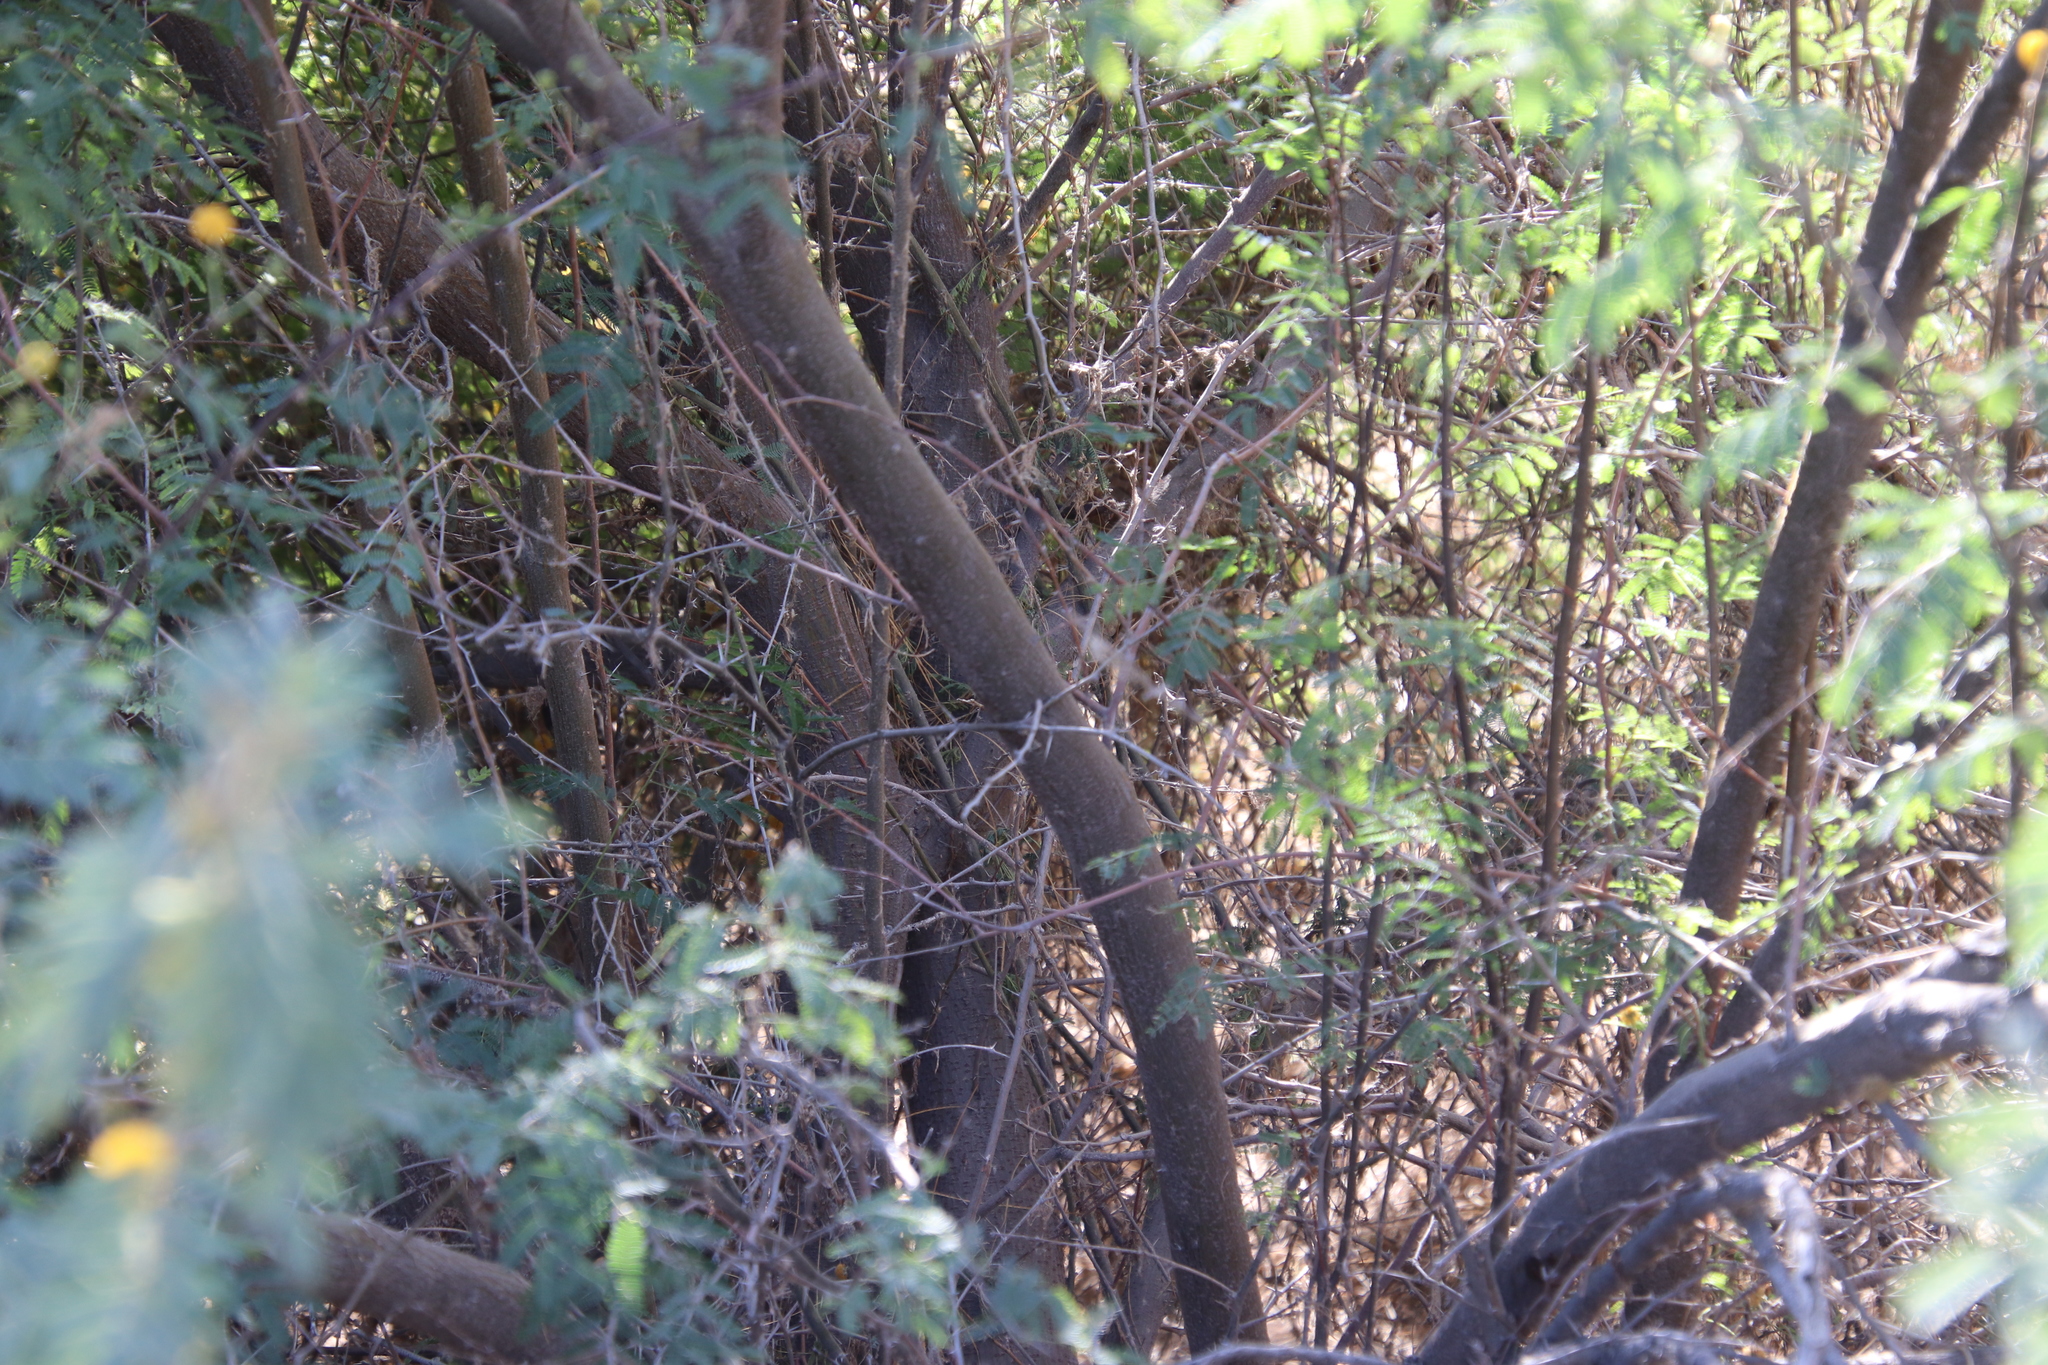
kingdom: Plantae
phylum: Tracheophyta
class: Magnoliopsida
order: Fabales
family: Fabaceae
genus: Vachellia
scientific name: Vachellia farnesiana
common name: Sweet acacia
